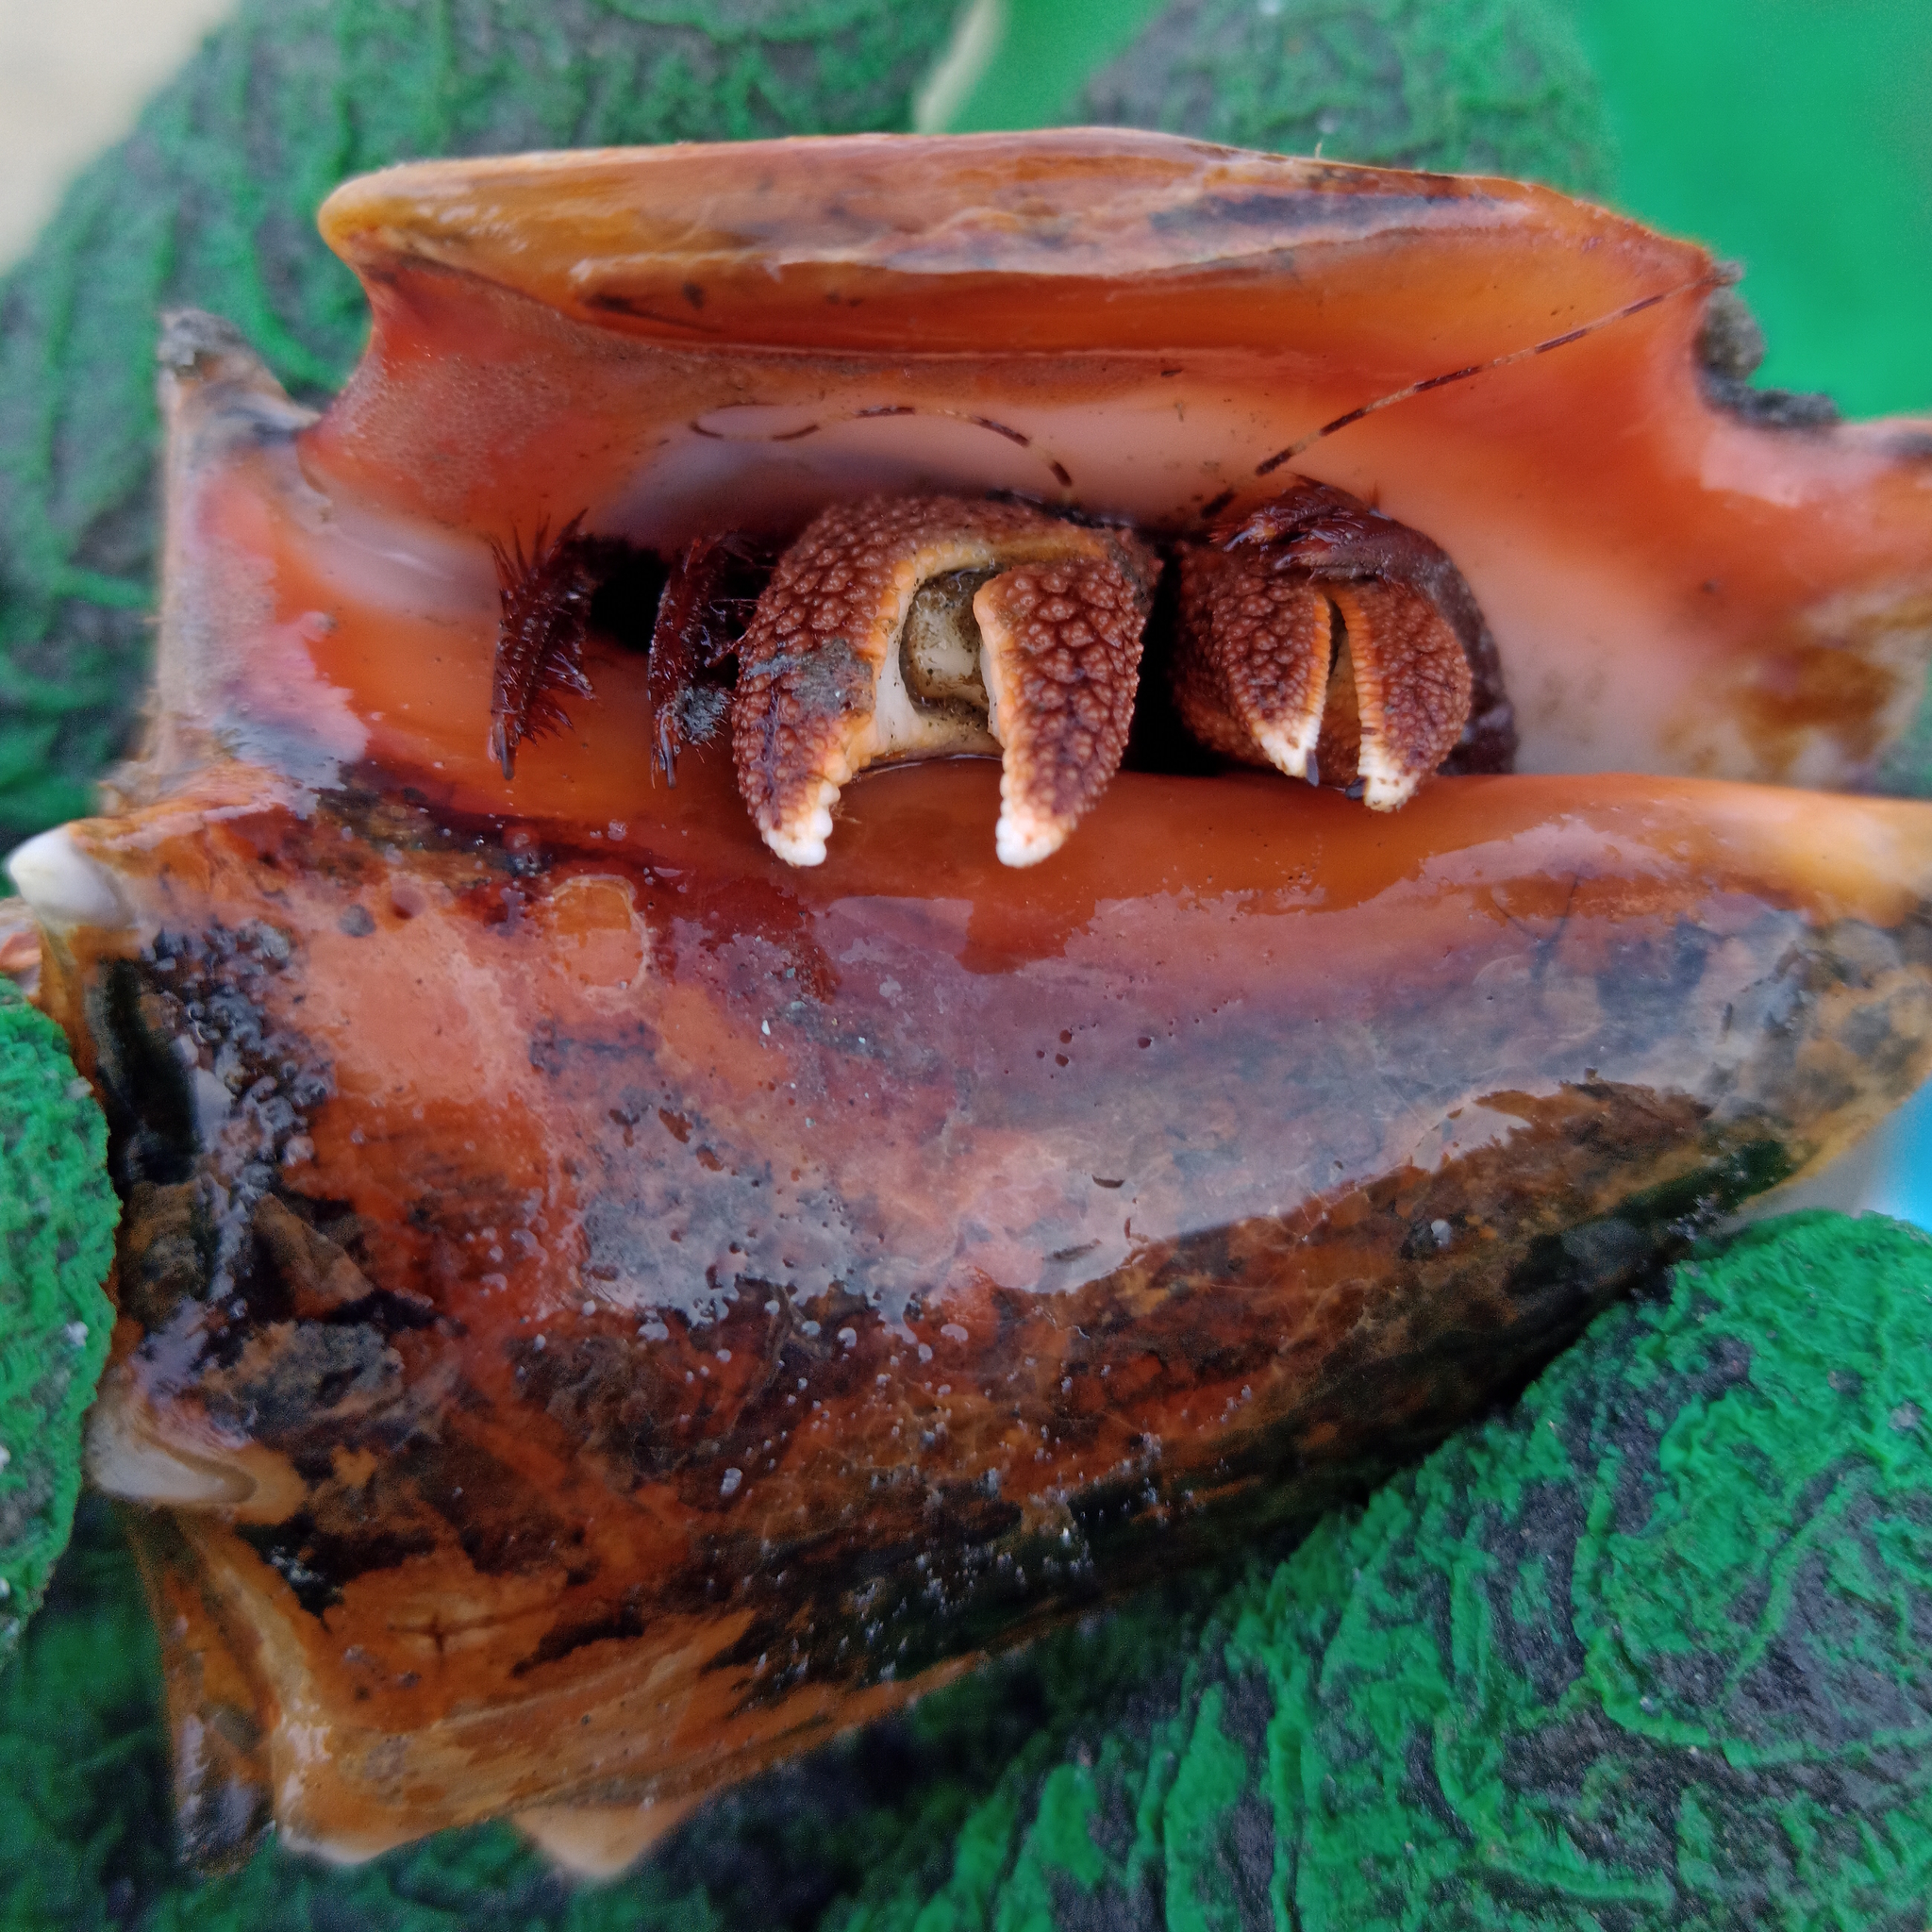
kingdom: Animalia
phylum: Arthropoda
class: Malacostraca
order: Decapoda
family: Diogenidae
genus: Petrochirus
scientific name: Petrochirus diogenes
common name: Giant hermit crab
